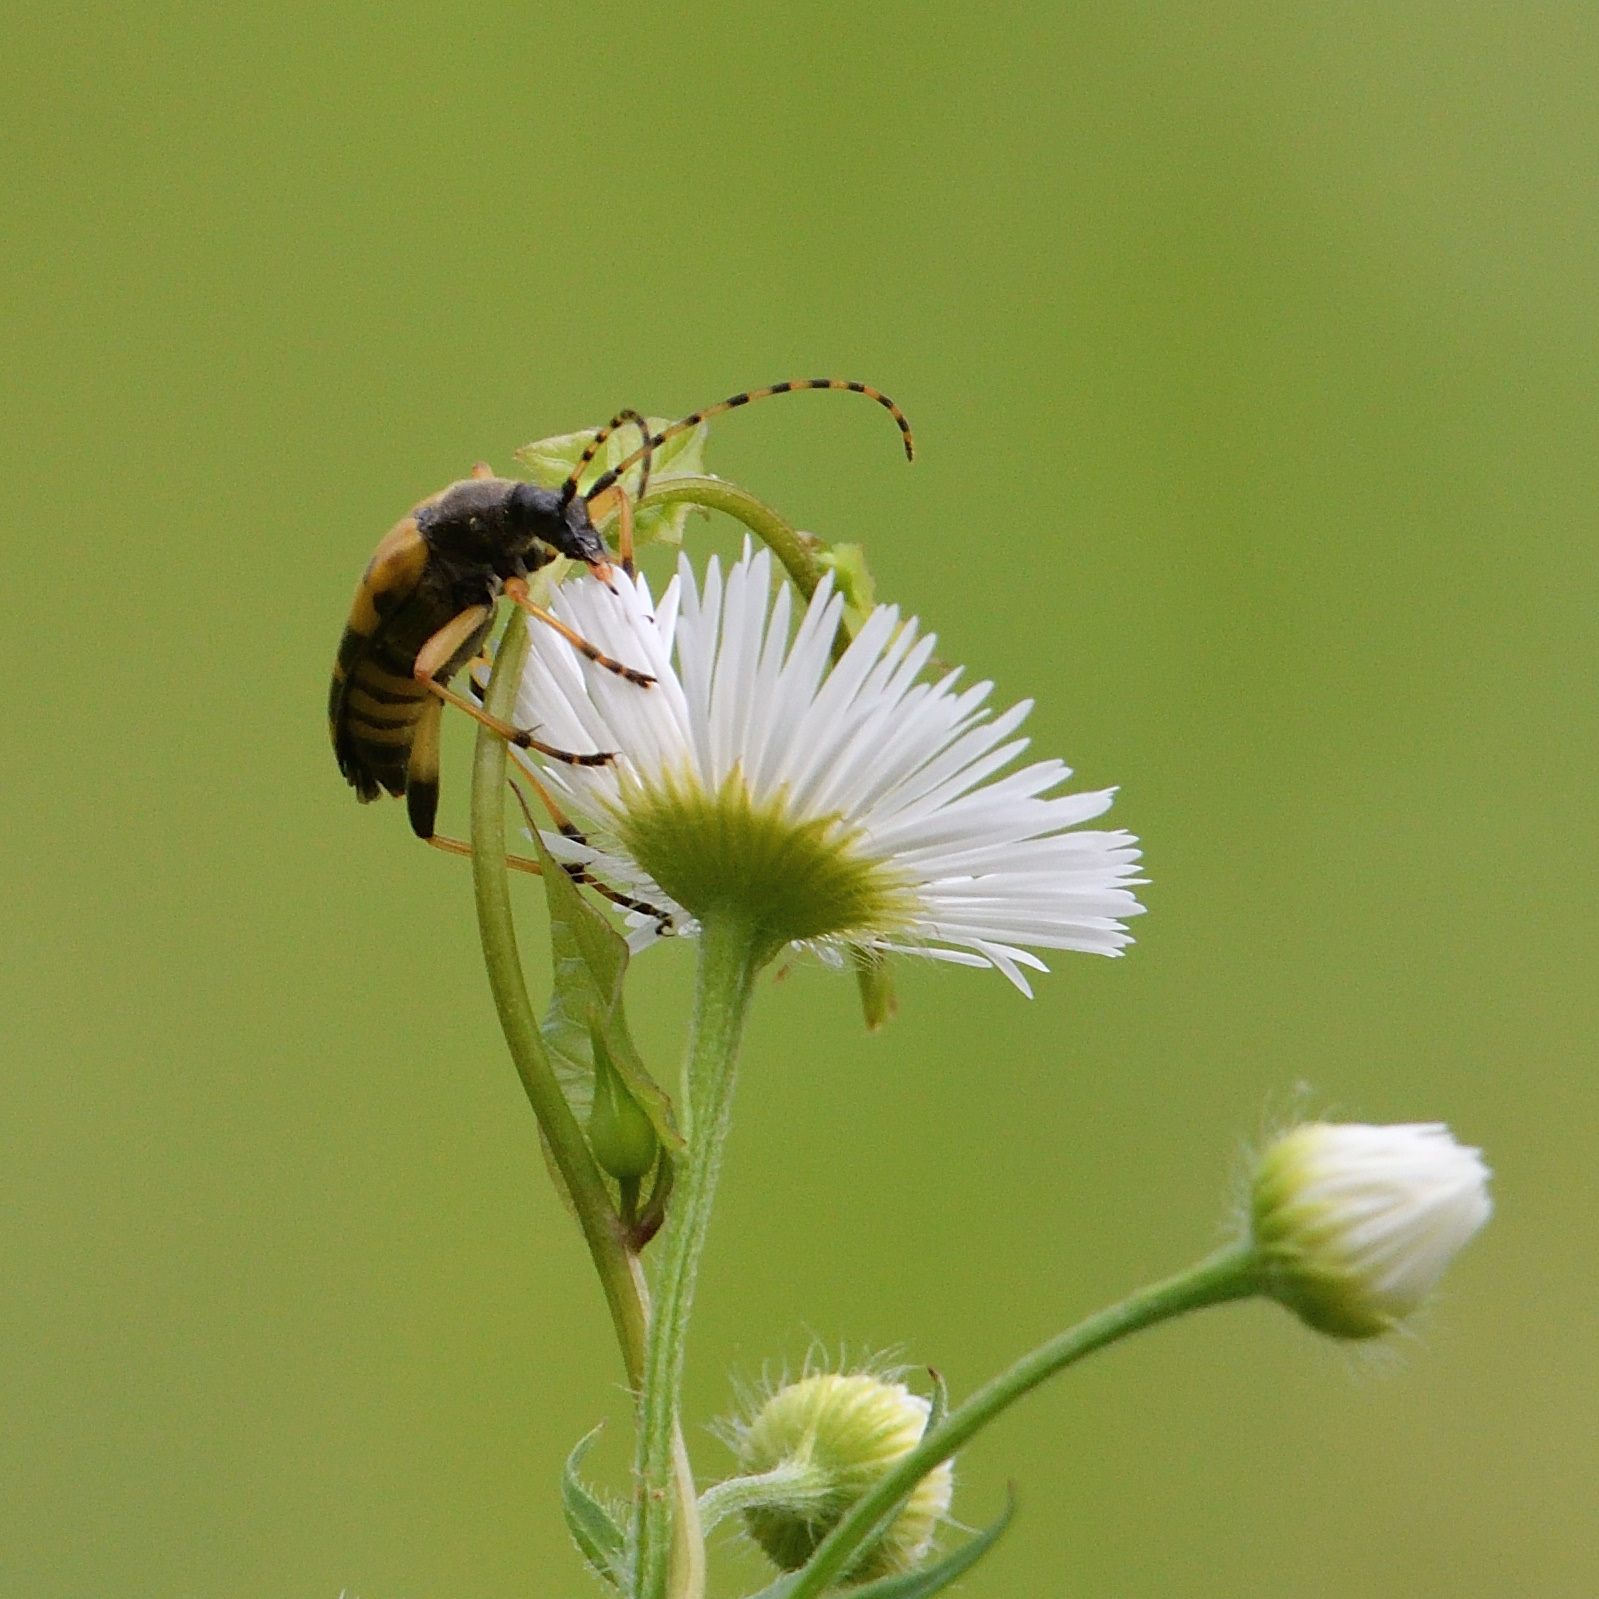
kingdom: Animalia
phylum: Arthropoda
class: Insecta
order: Coleoptera
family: Cerambycidae
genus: Rutpela
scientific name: Rutpela maculata
